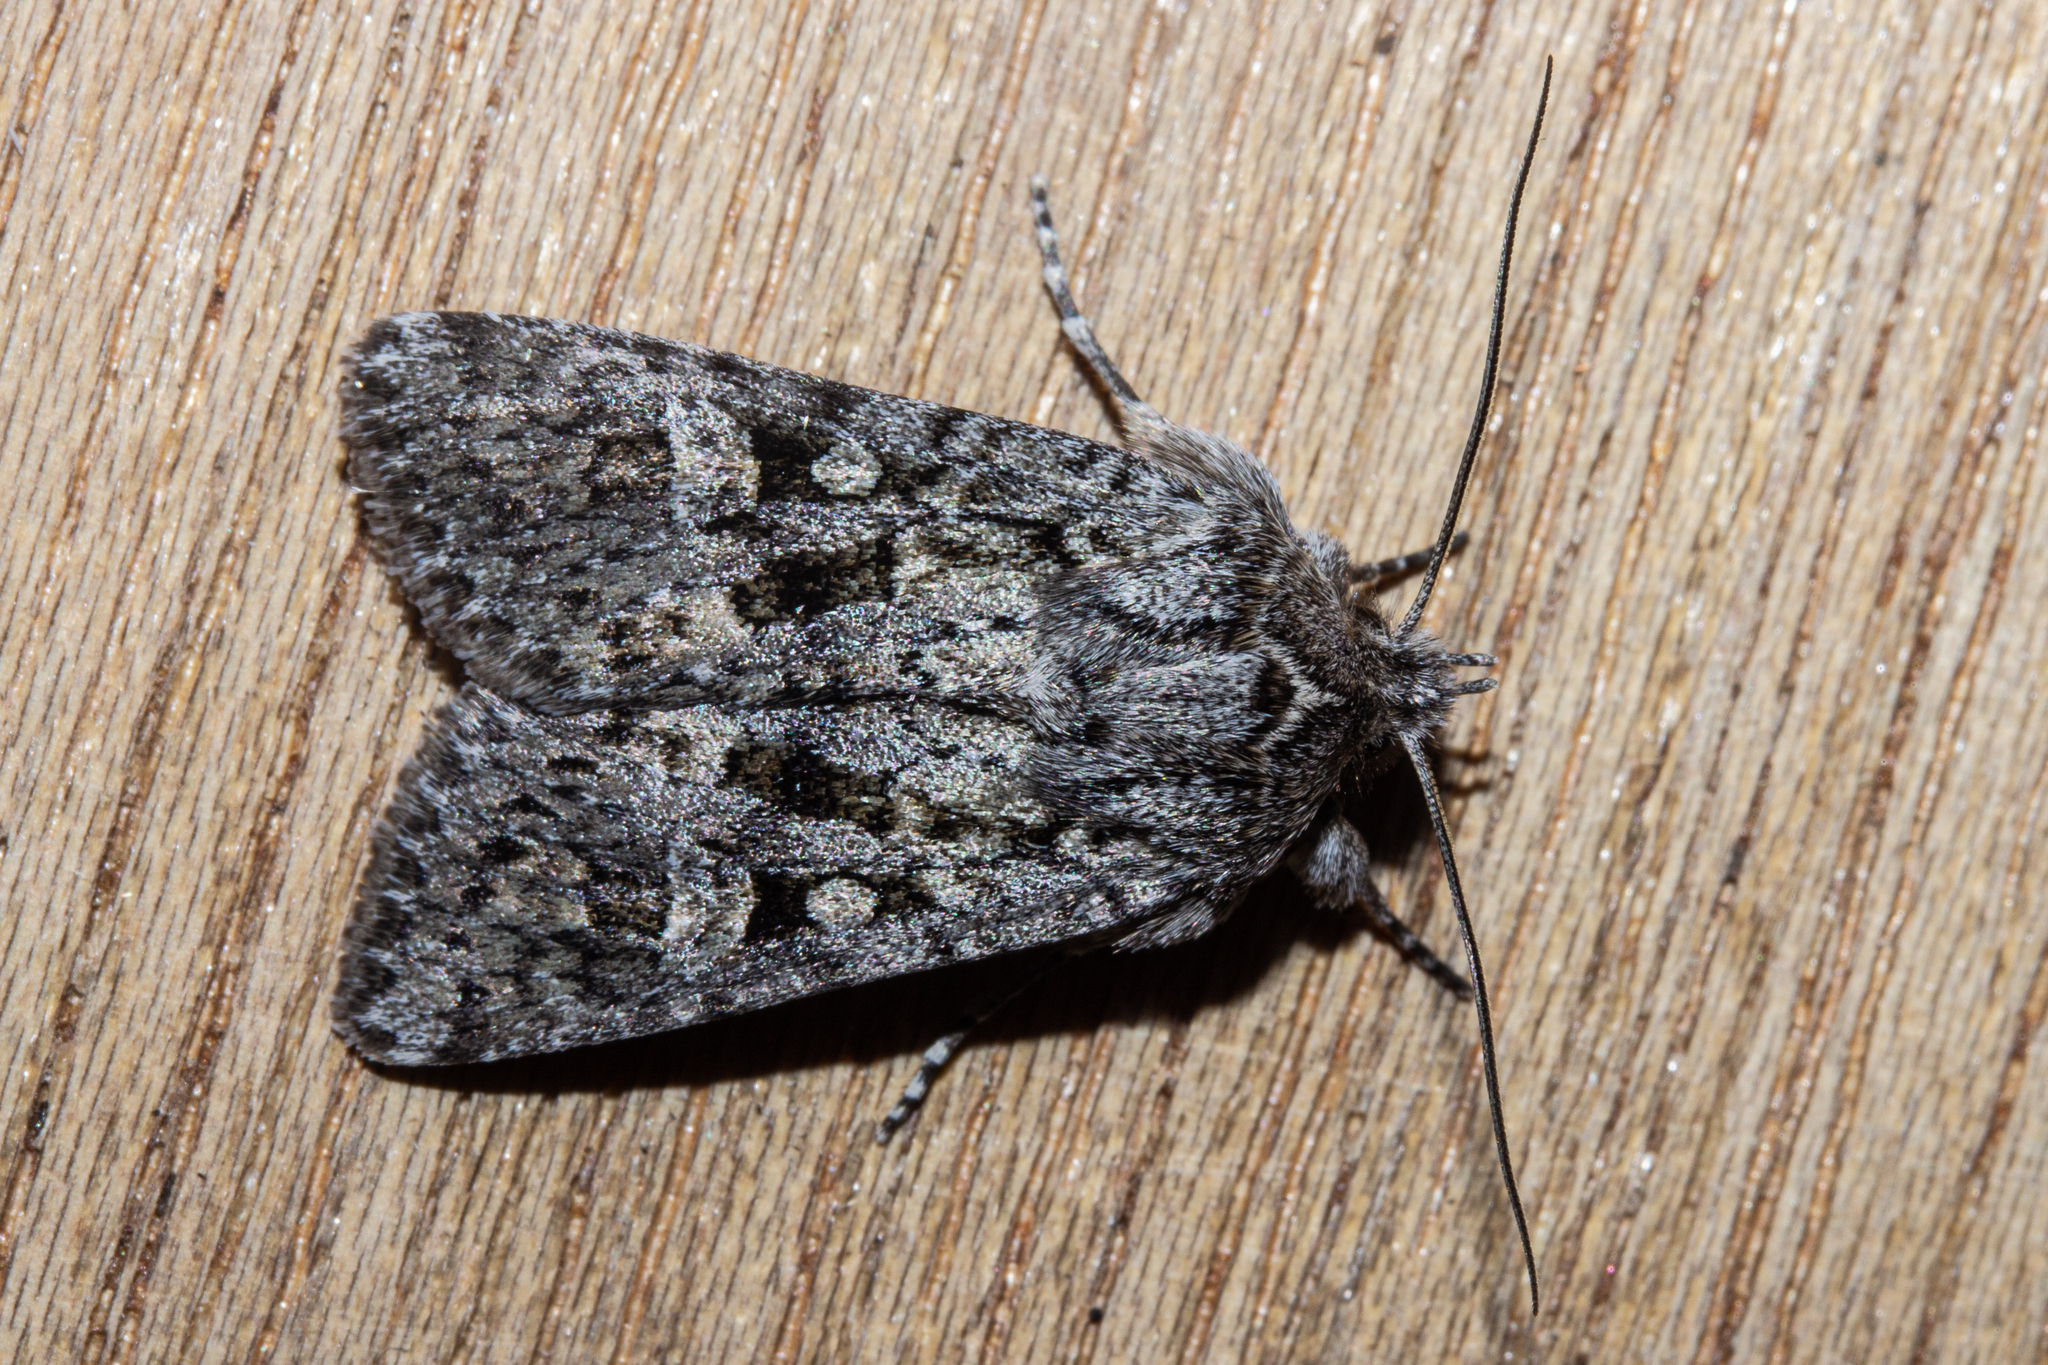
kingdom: Animalia
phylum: Arthropoda
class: Insecta
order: Lepidoptera
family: Noctuidae
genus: Physetica
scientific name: Physetica cucullina
